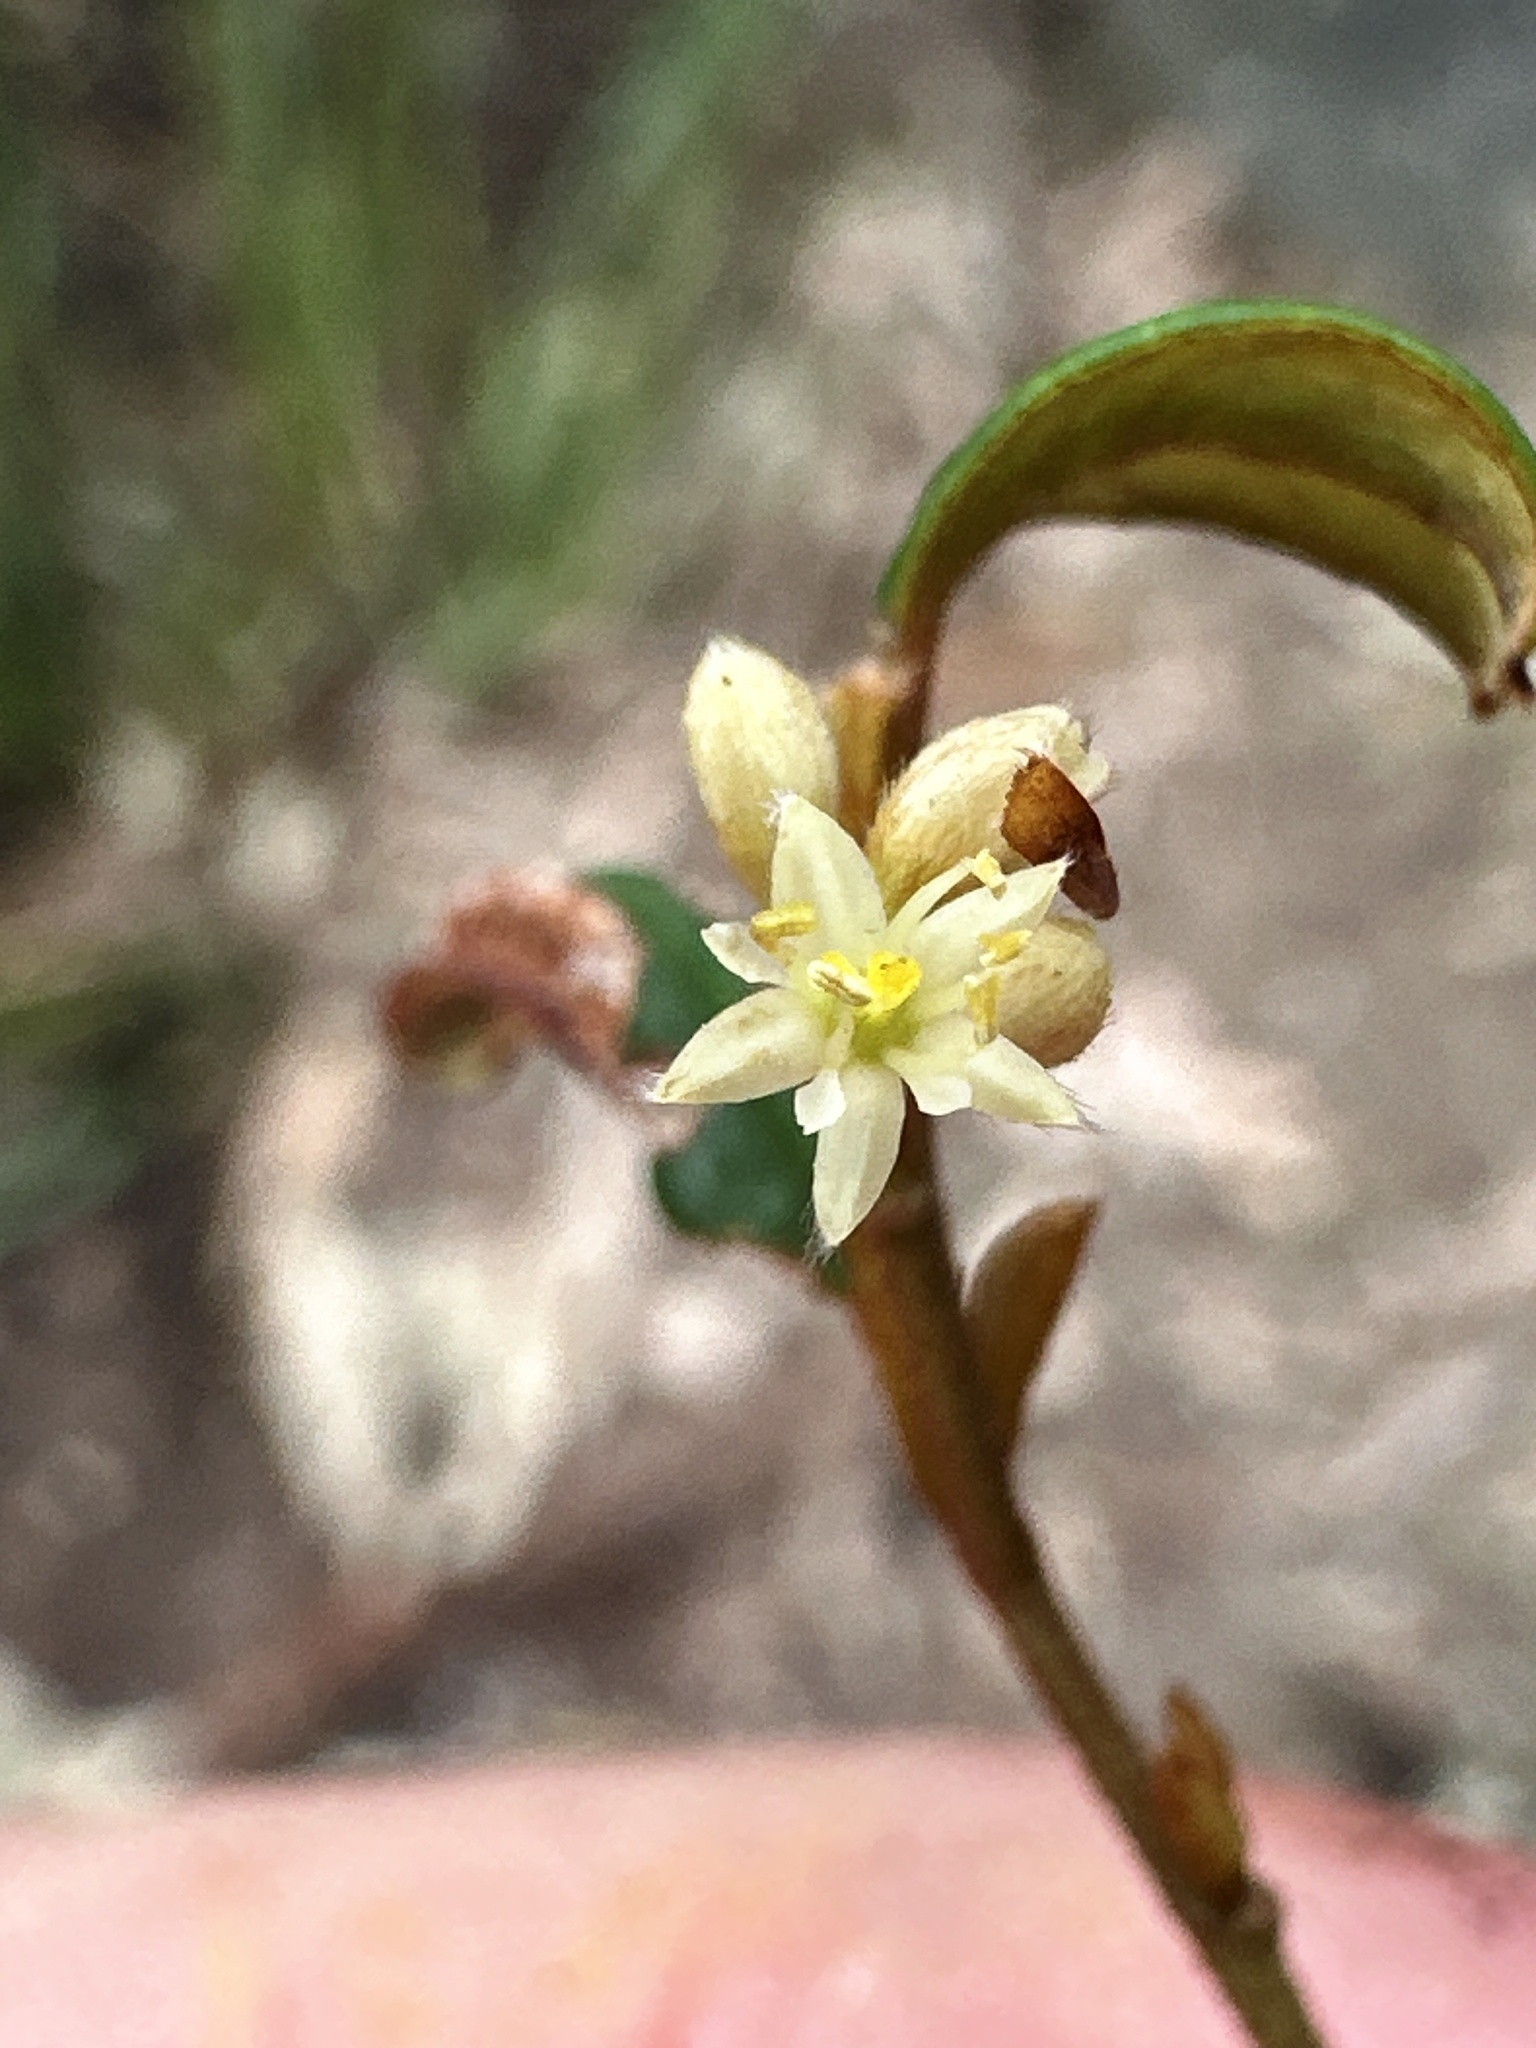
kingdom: Plantae
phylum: Tracheophyta
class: Magnoliopsida
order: Rosales
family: Rhamnaceae
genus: Pomaderris
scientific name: Pomaderris ligustrina
